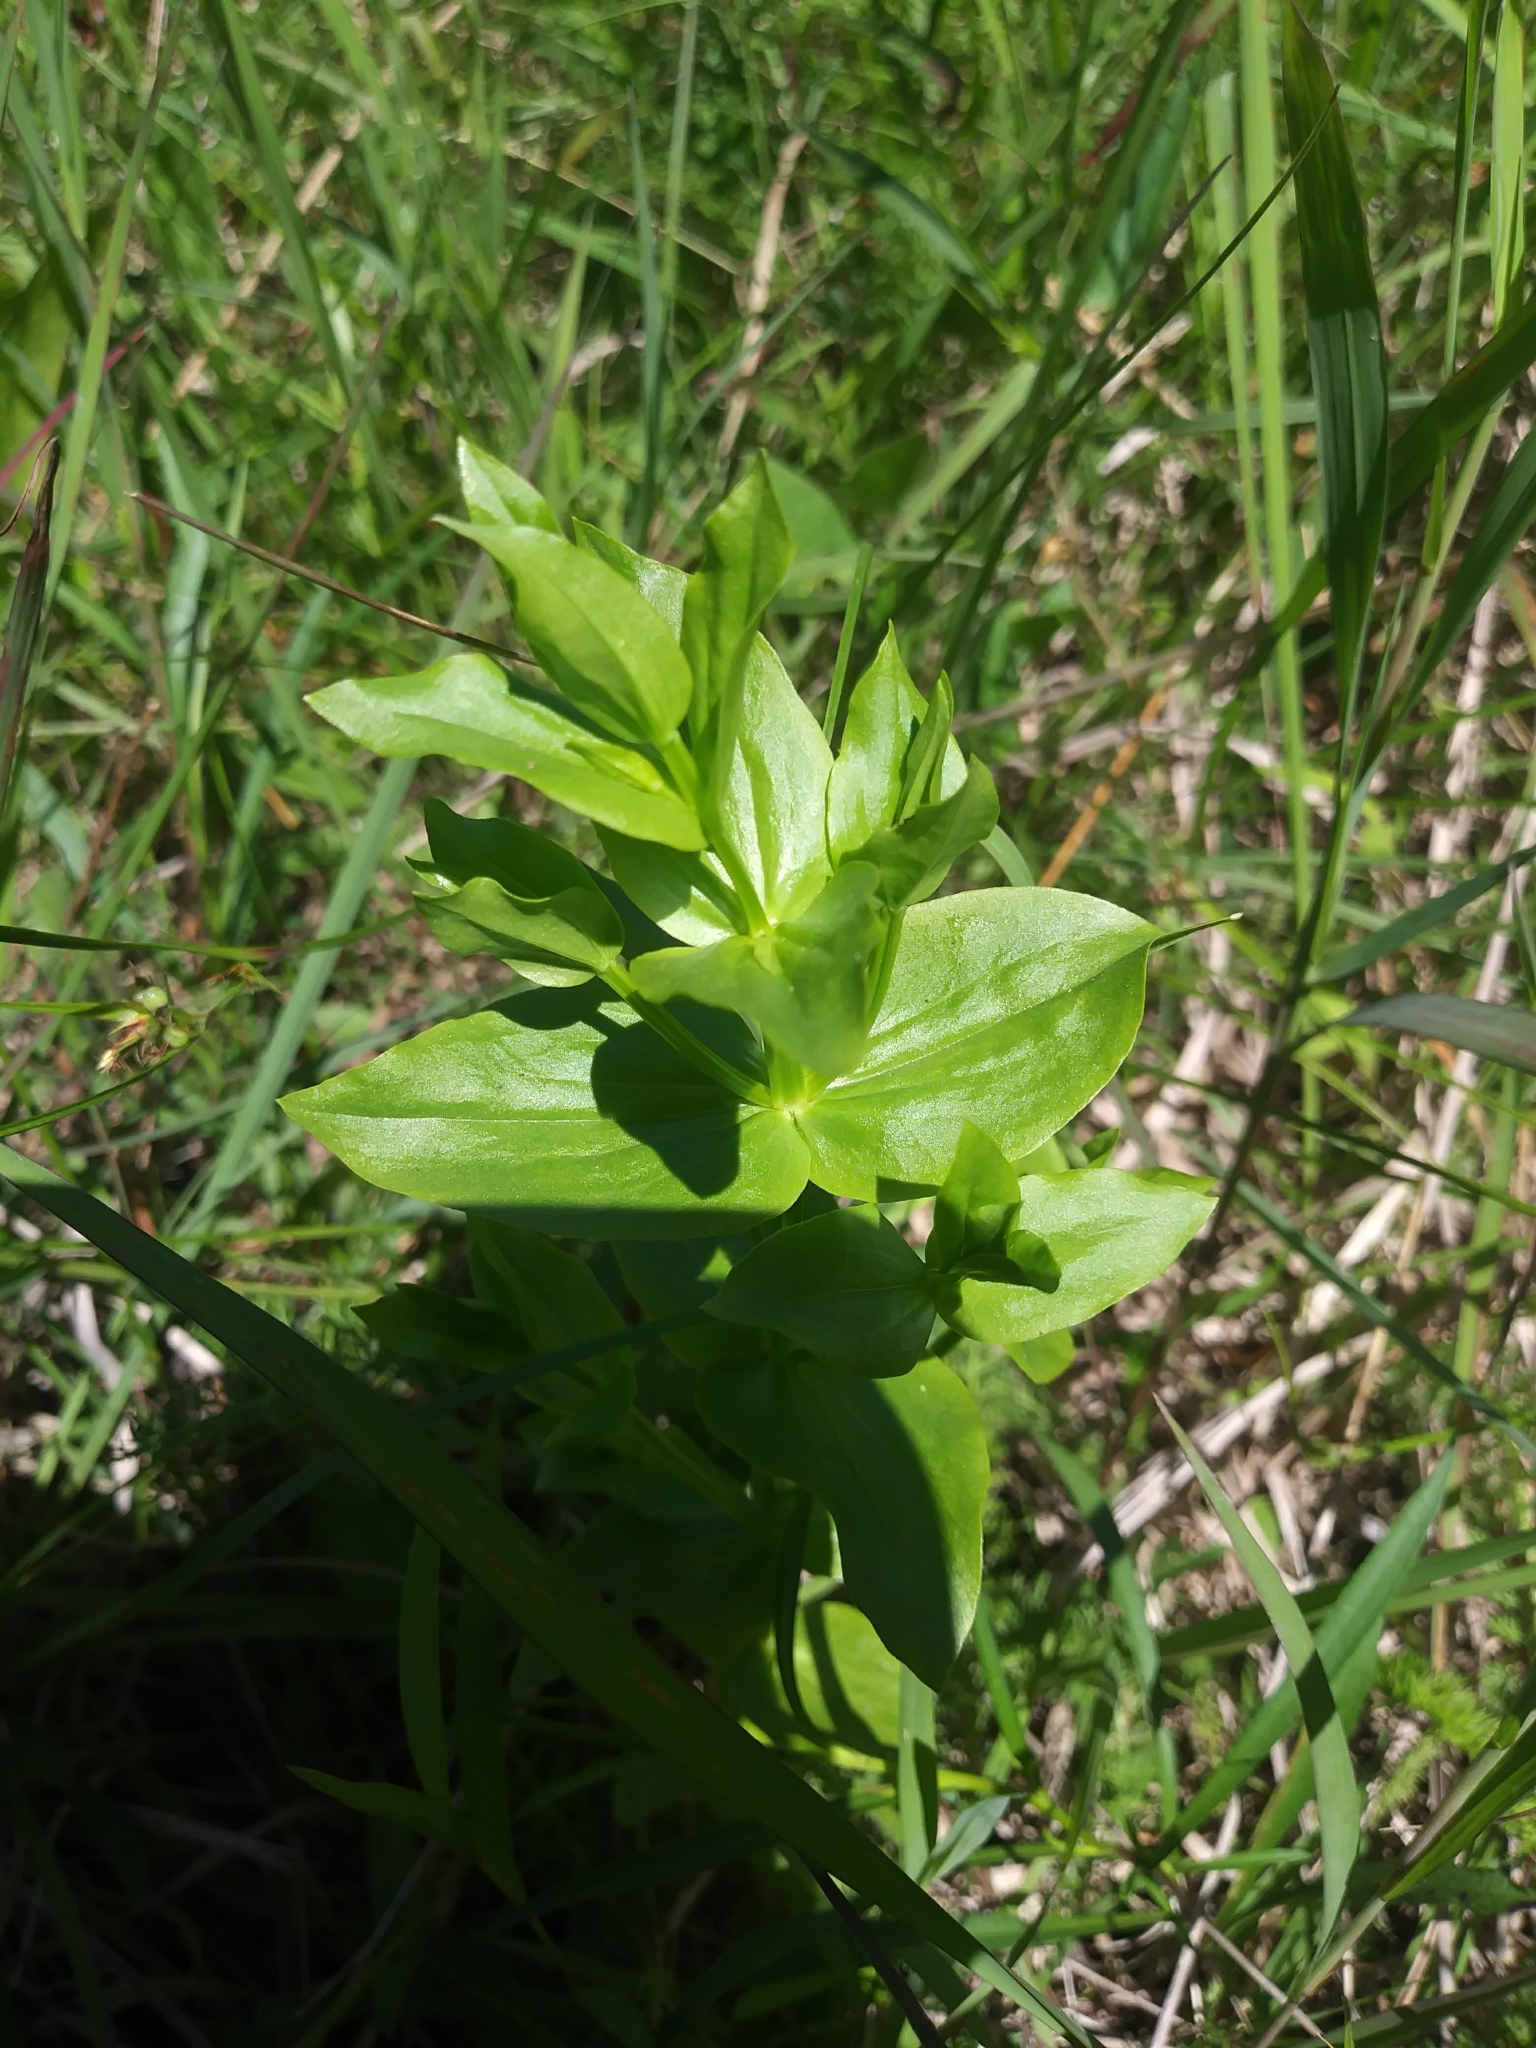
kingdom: Plantae
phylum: Tracheophyta
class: Magnoliopsida
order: Gentianales
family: Gentianaceae
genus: Sabatia
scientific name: Sabatia angularis
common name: Rose-pink
